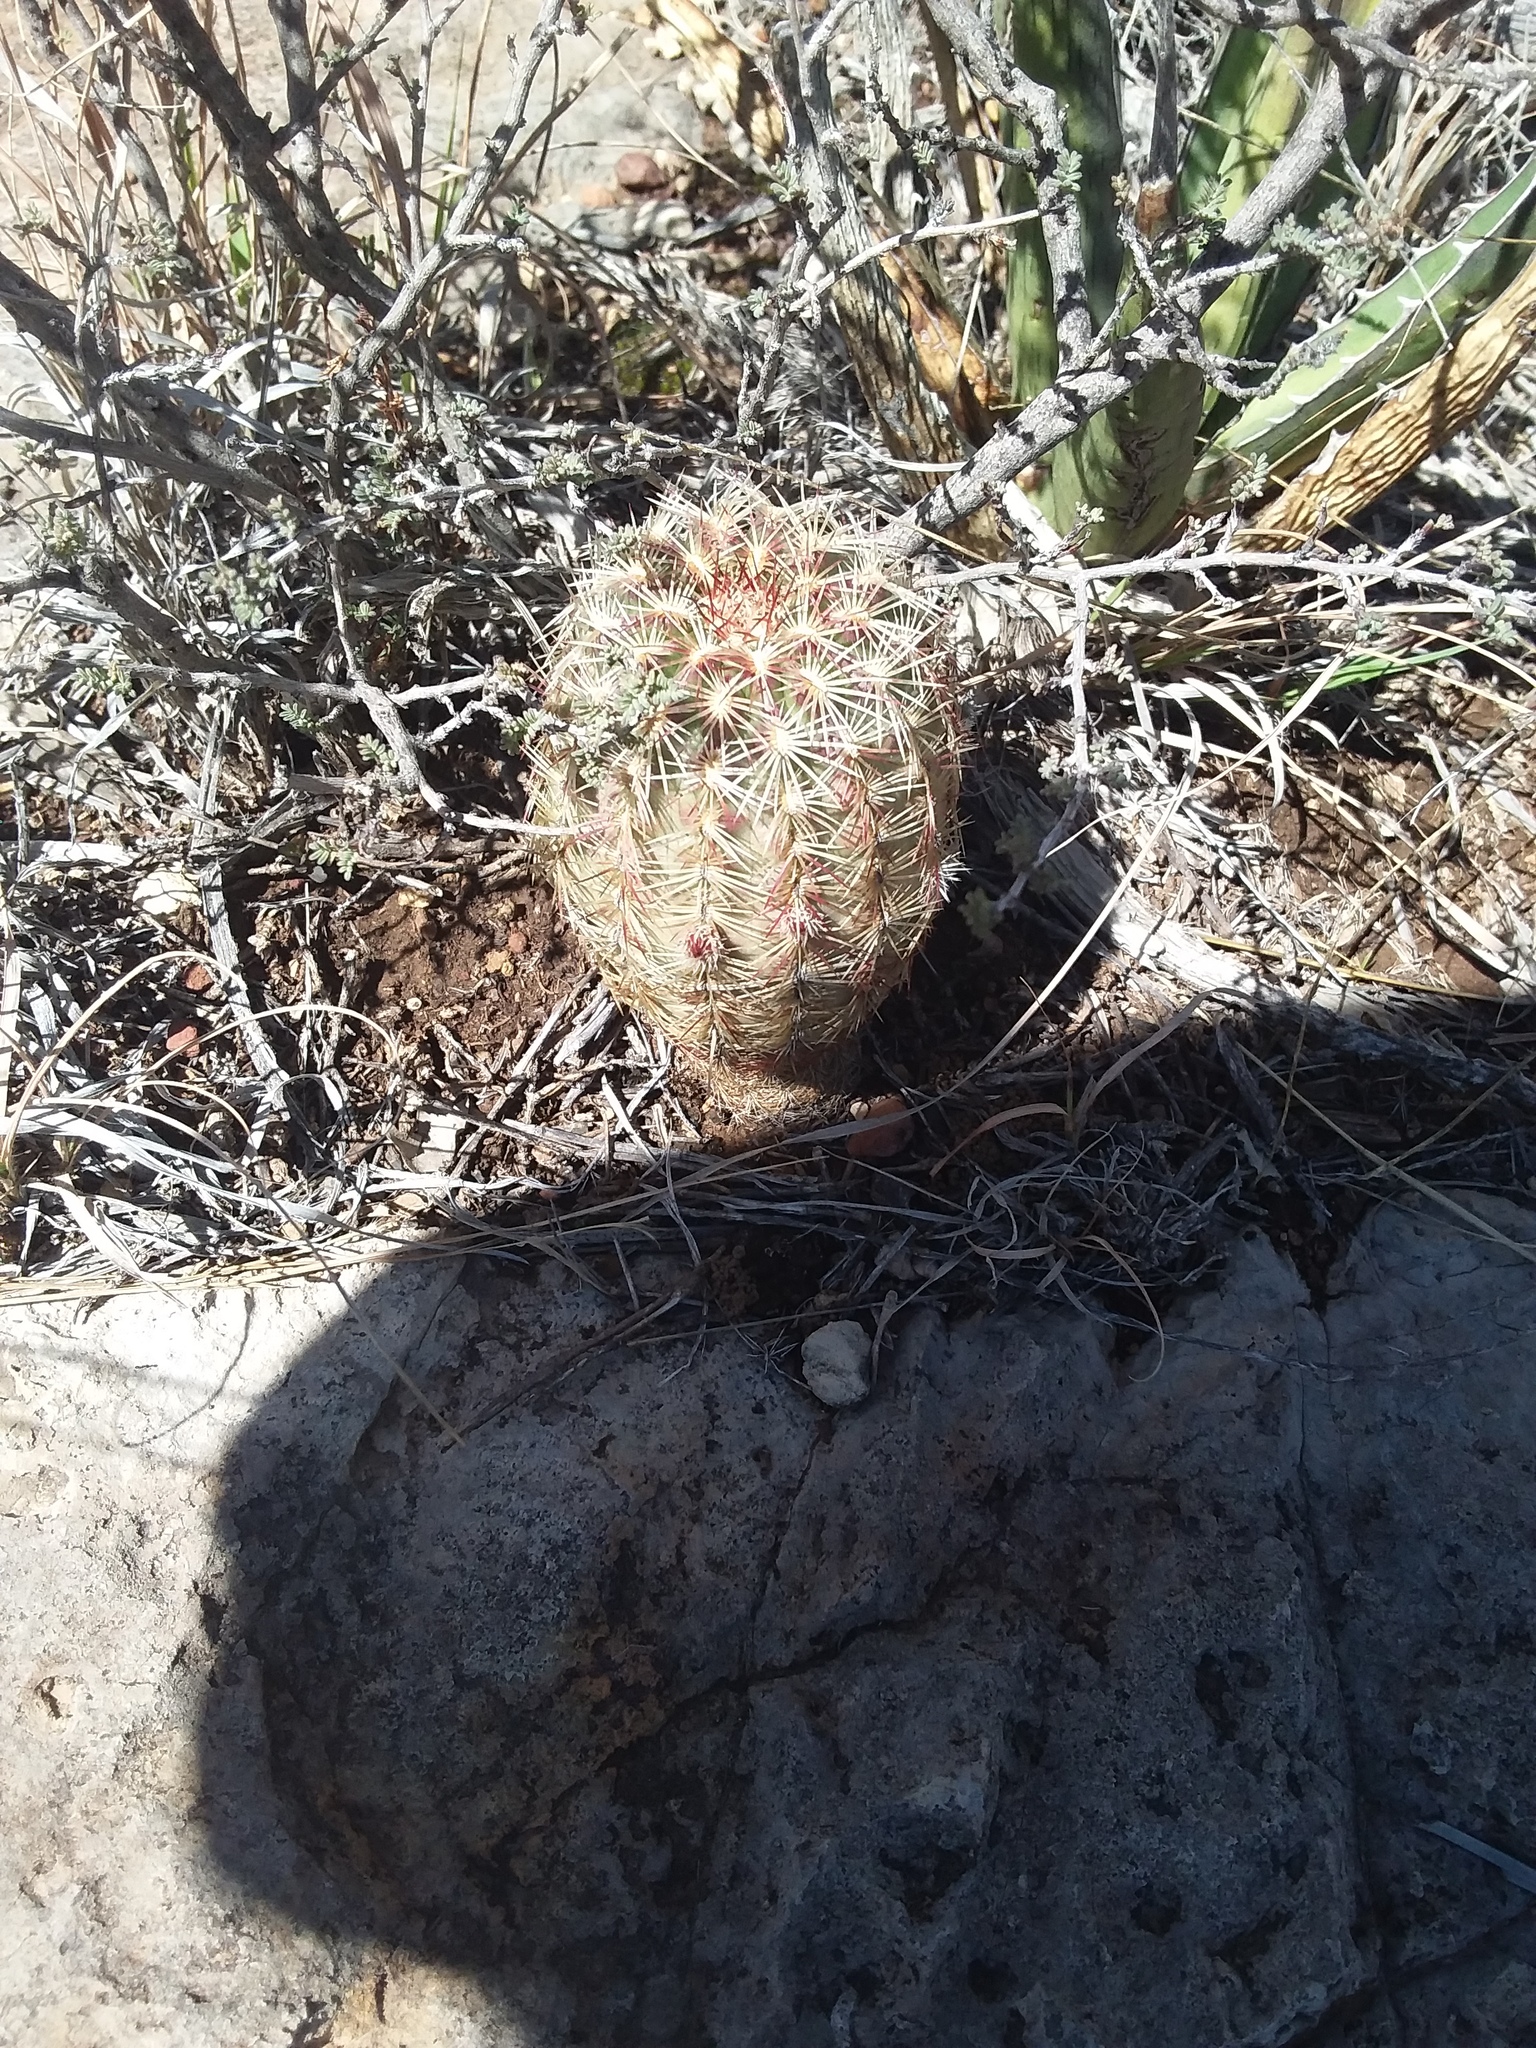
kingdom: Plantae
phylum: Tracheophyta
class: Magnoliopsida
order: Caryophyllales
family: Cactaceae
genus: Echinocereus
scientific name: Echinocereus viridiflorus
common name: Nylon hedgehog cactus
